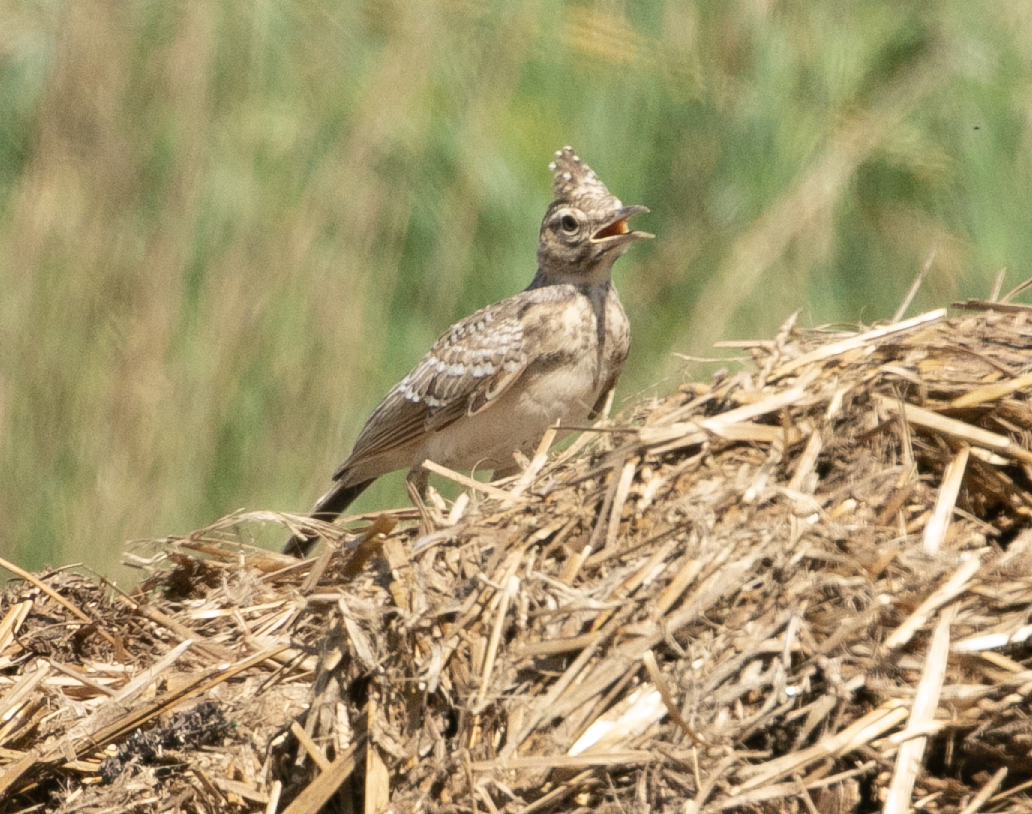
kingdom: Animalia
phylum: Chordata
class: Aves
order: Passeriformes
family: Alaudidae
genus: Galerida
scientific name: Galerida cristata
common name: Crested lark
